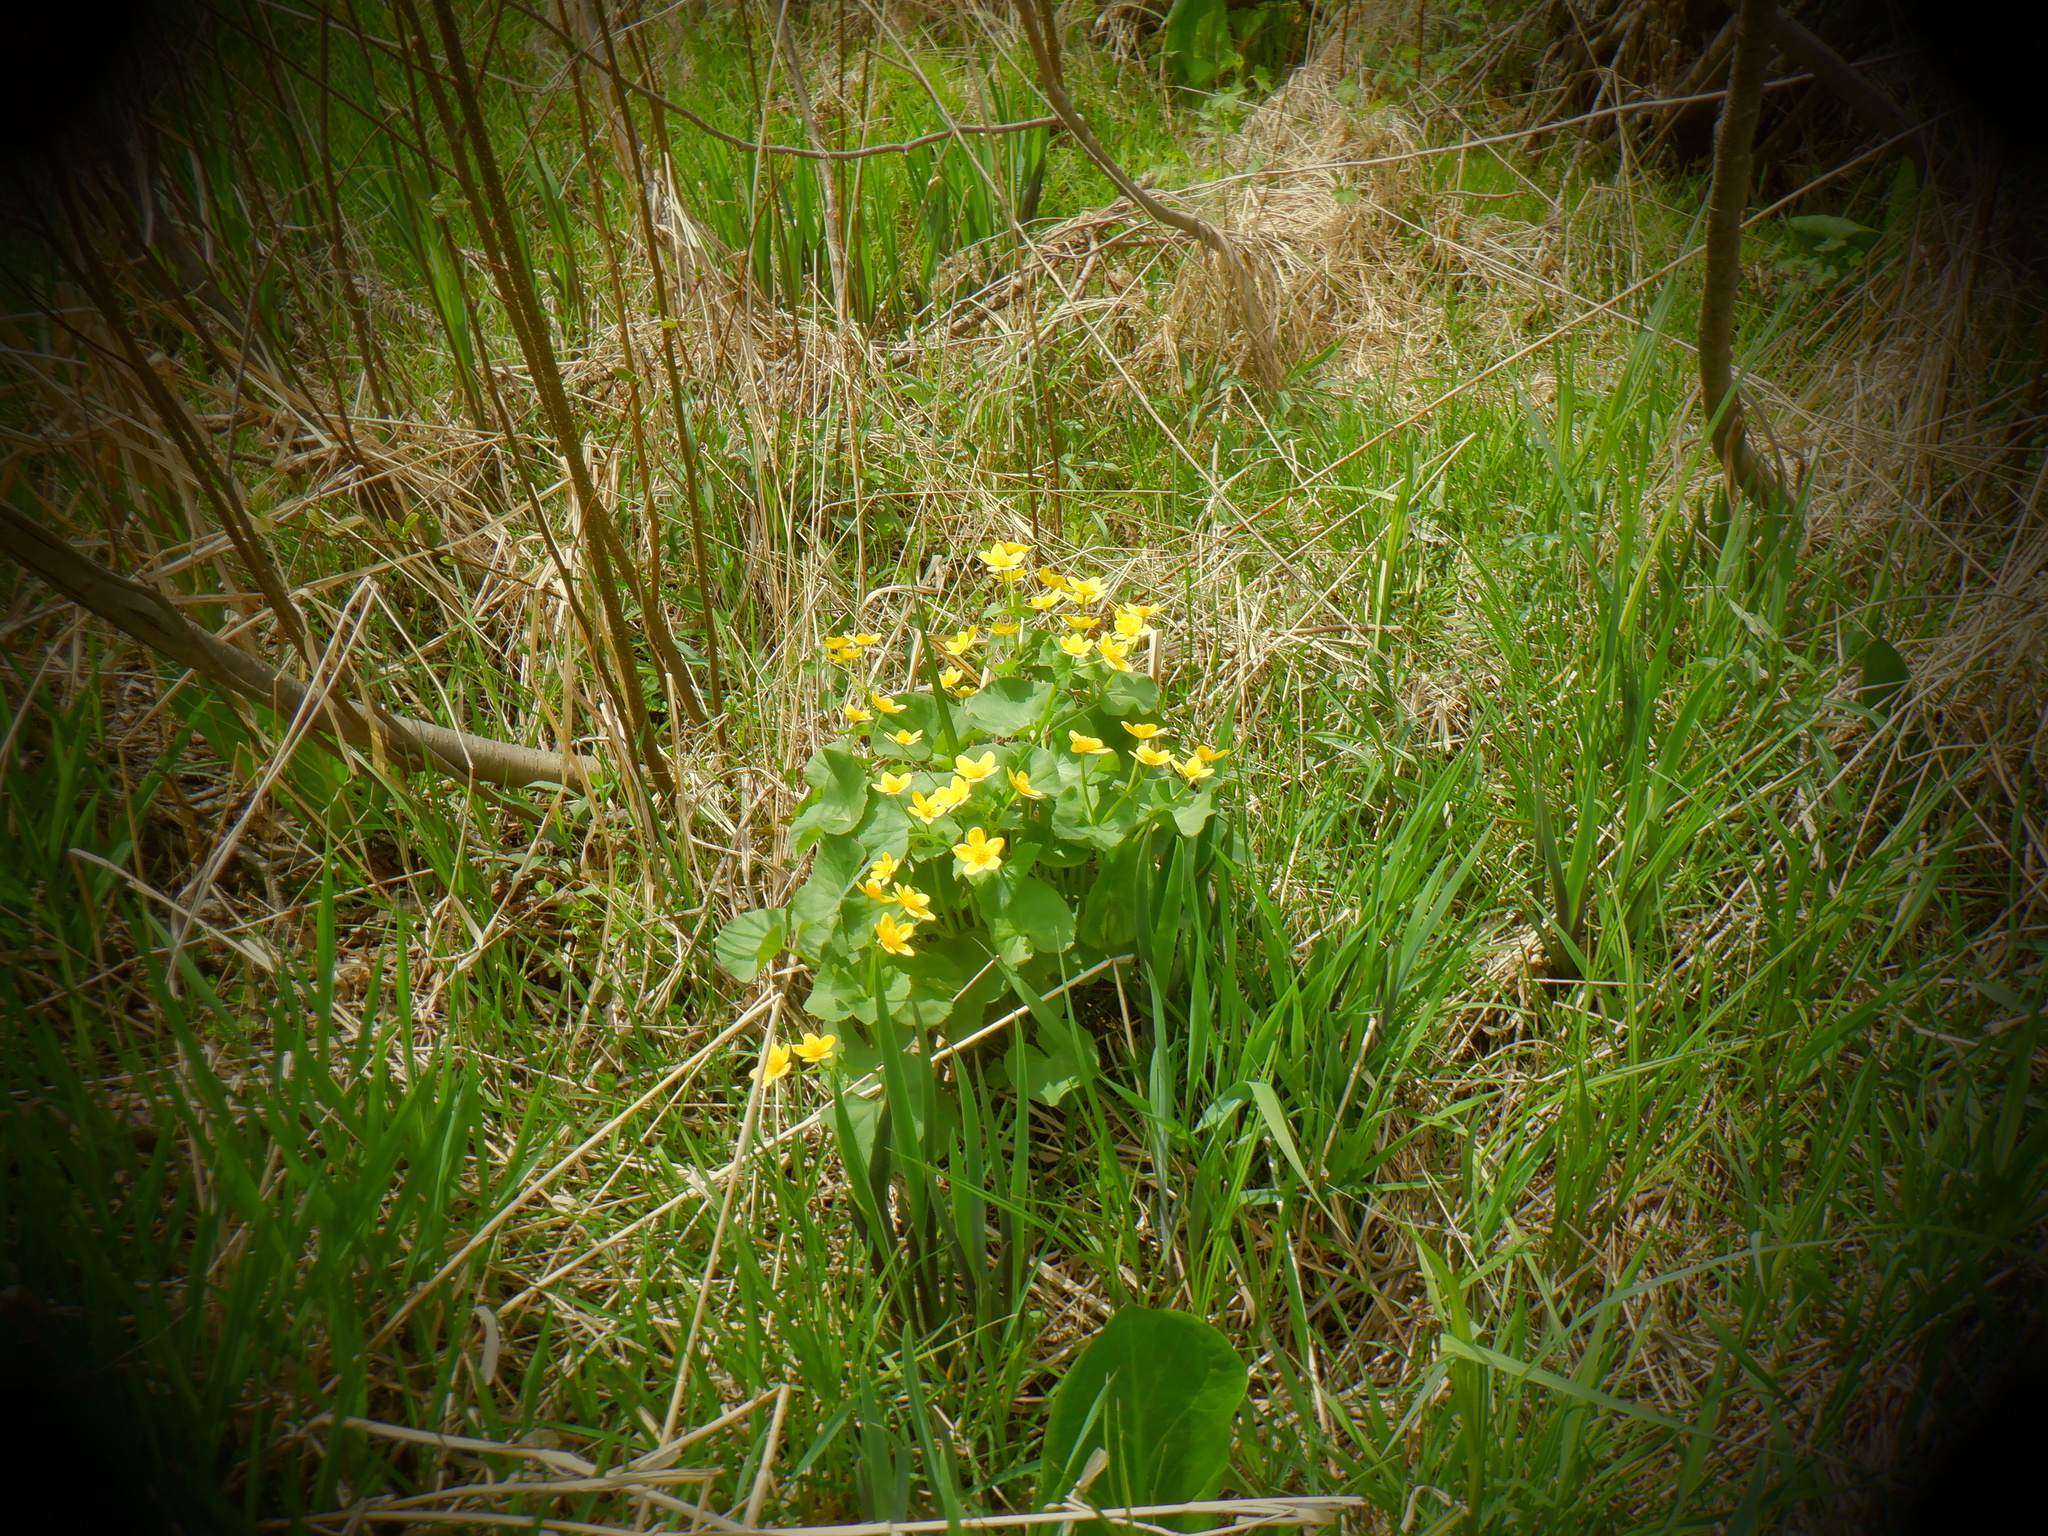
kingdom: Plantae
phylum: Tracheophyta
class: Magnoliopsida
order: Ranunculales
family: Ranunculaceae
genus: Caltha
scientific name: Caltha palustris
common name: Marsh marigold
